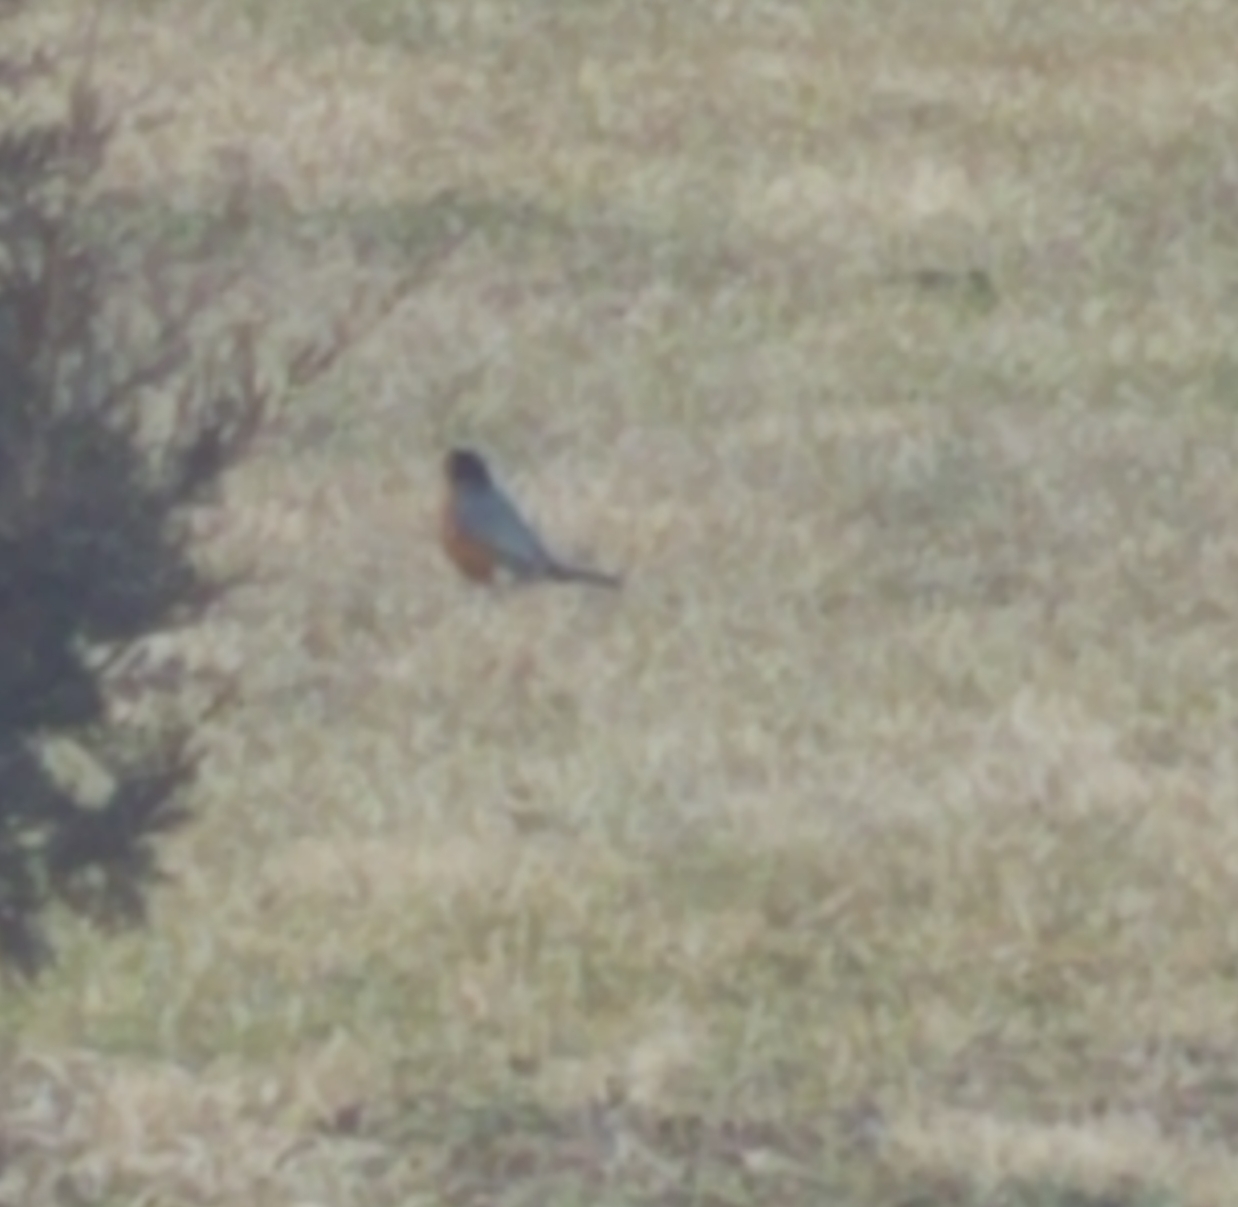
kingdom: Animalia
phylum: Chordata
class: Aves
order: Passeriformes
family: Turdidae
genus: Turdus
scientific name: Turdus migratorius
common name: American robin
